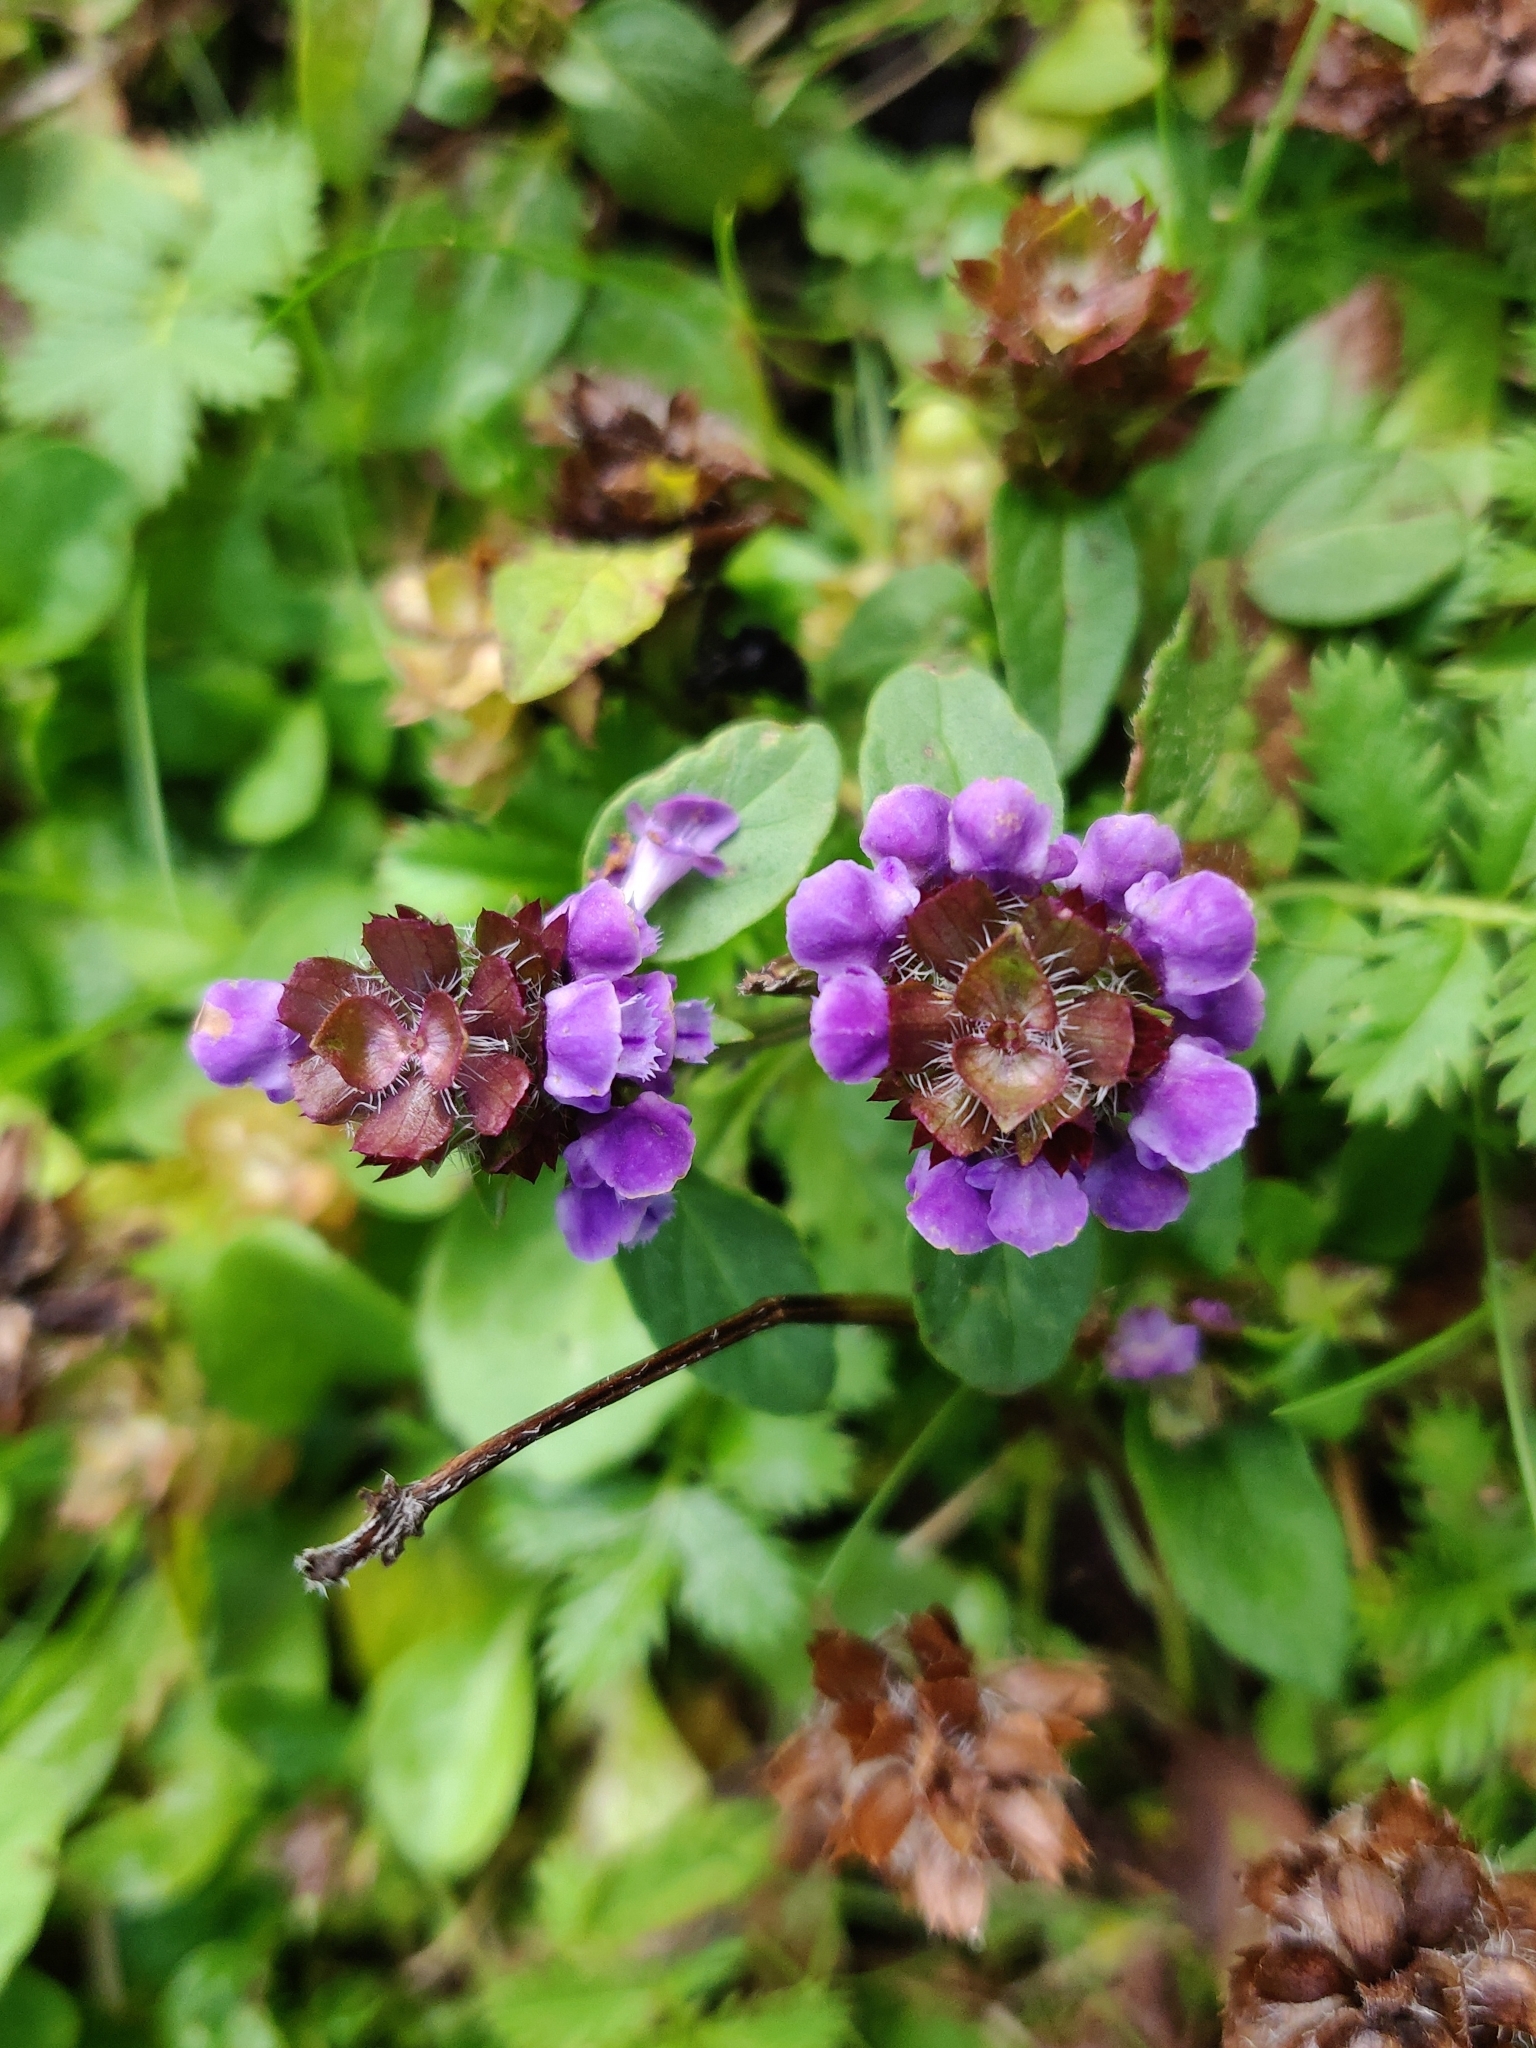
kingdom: Plantae
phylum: Tracheophyta
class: Magnoliopsida
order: Lamiales
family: Lamiaceae
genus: Prunella
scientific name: Prunella vulgaris
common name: Heal-all
